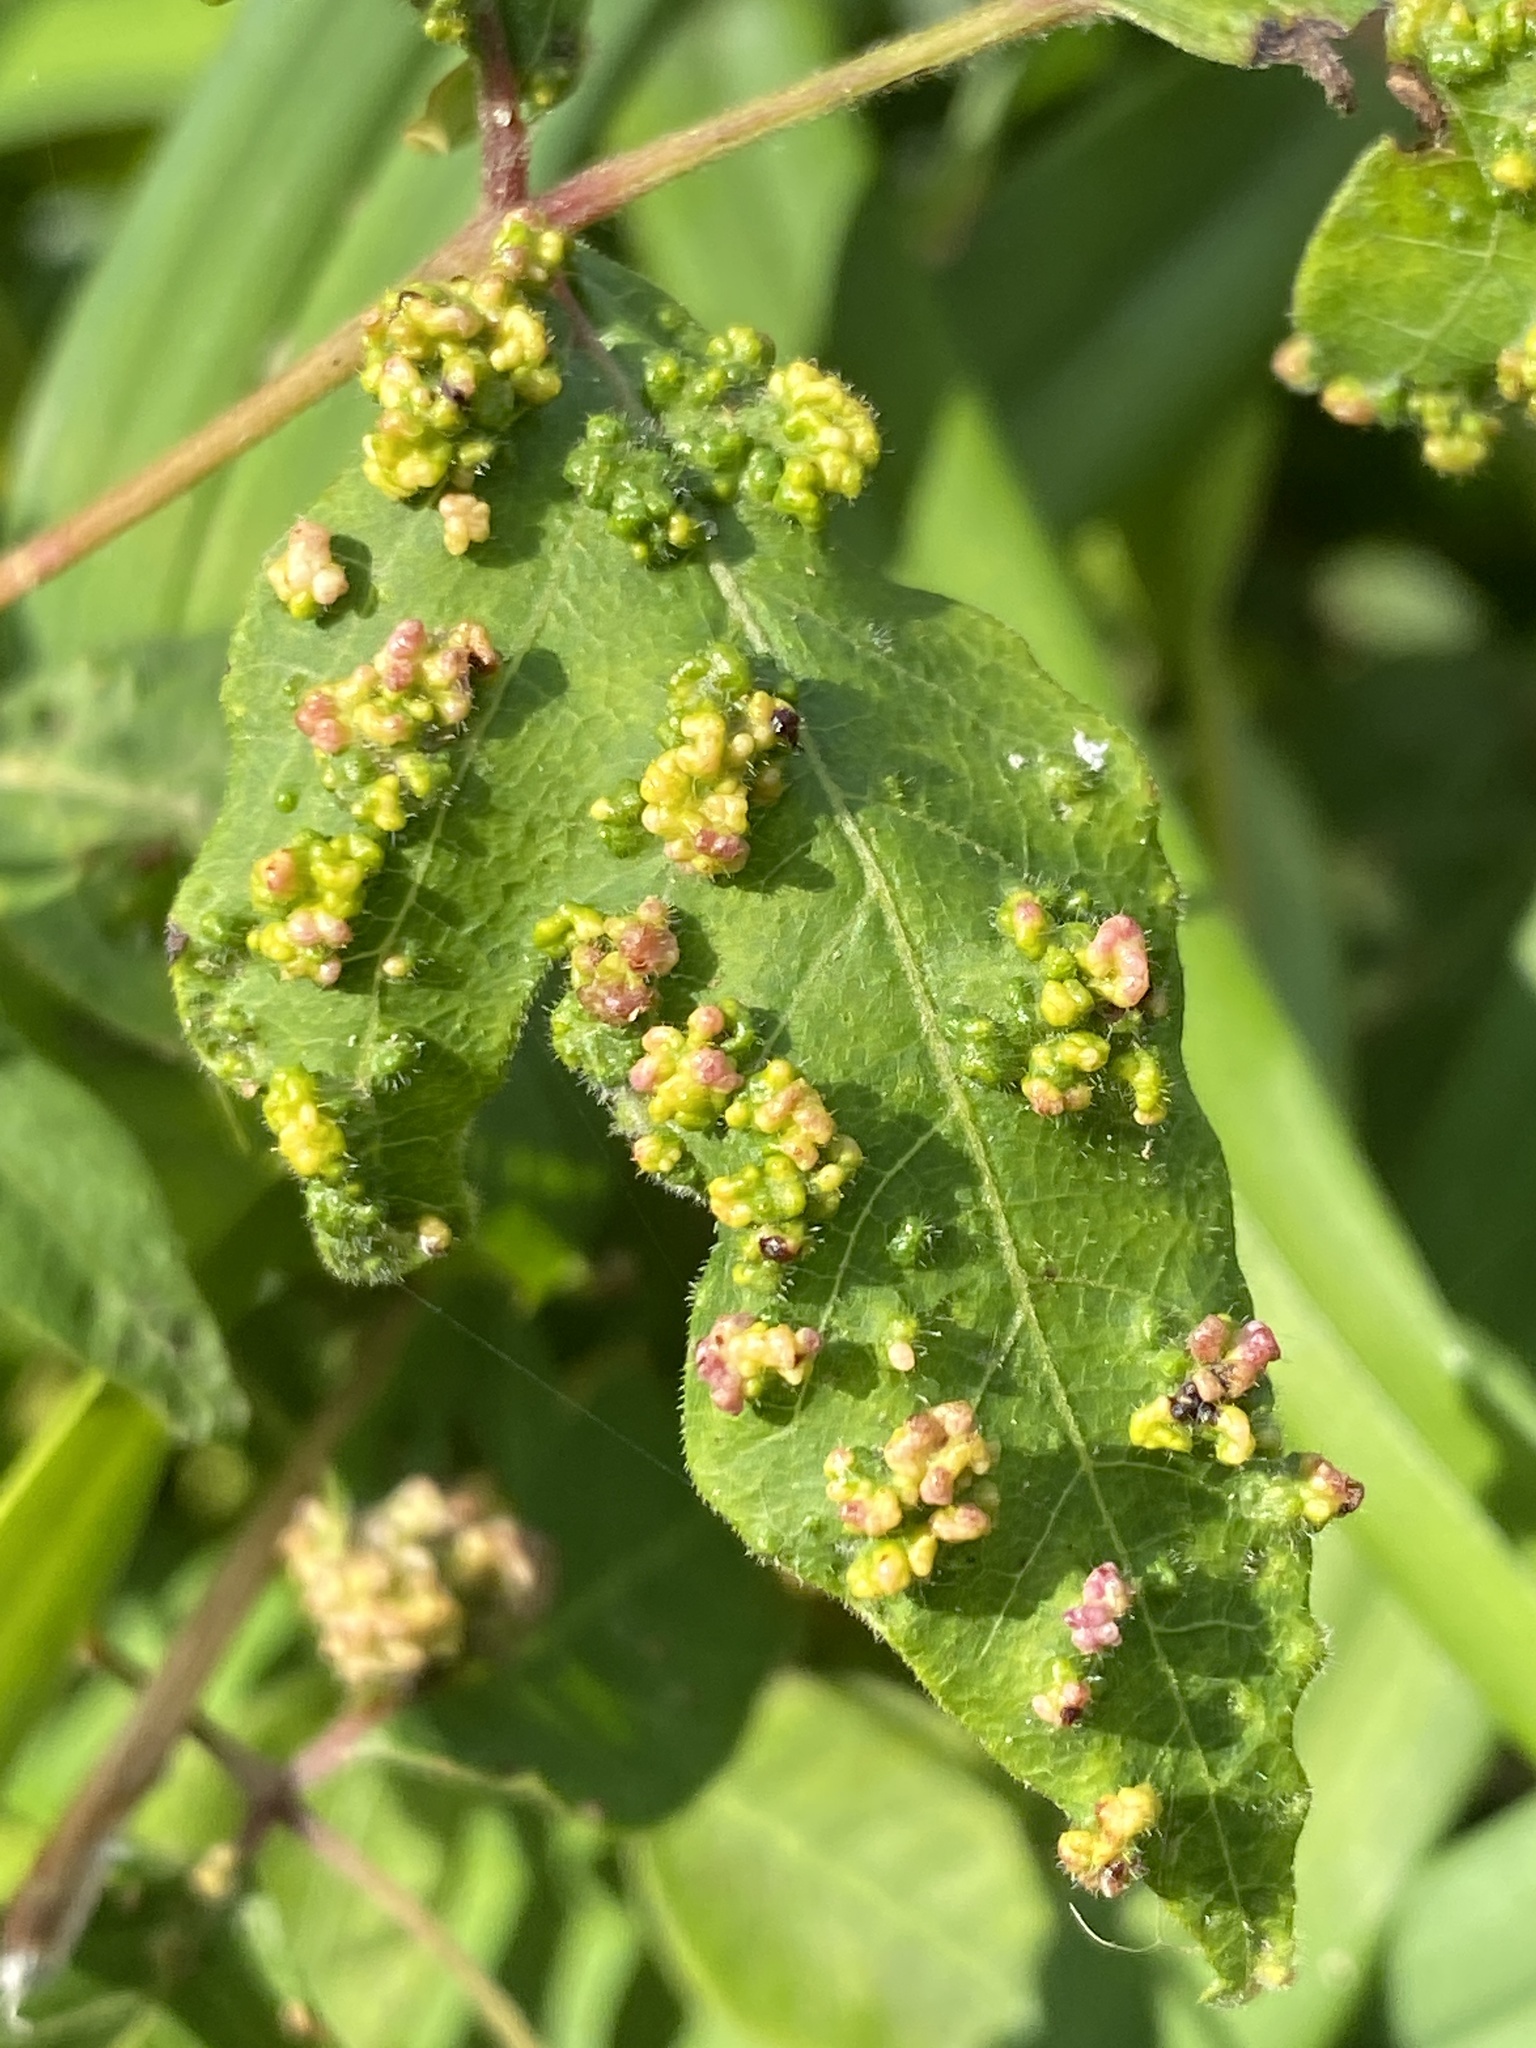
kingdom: Animalia
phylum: Arthropoda
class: Arachnida
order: Trombidiformes
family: Eriophyidae
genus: Aculops
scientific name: Aculops
